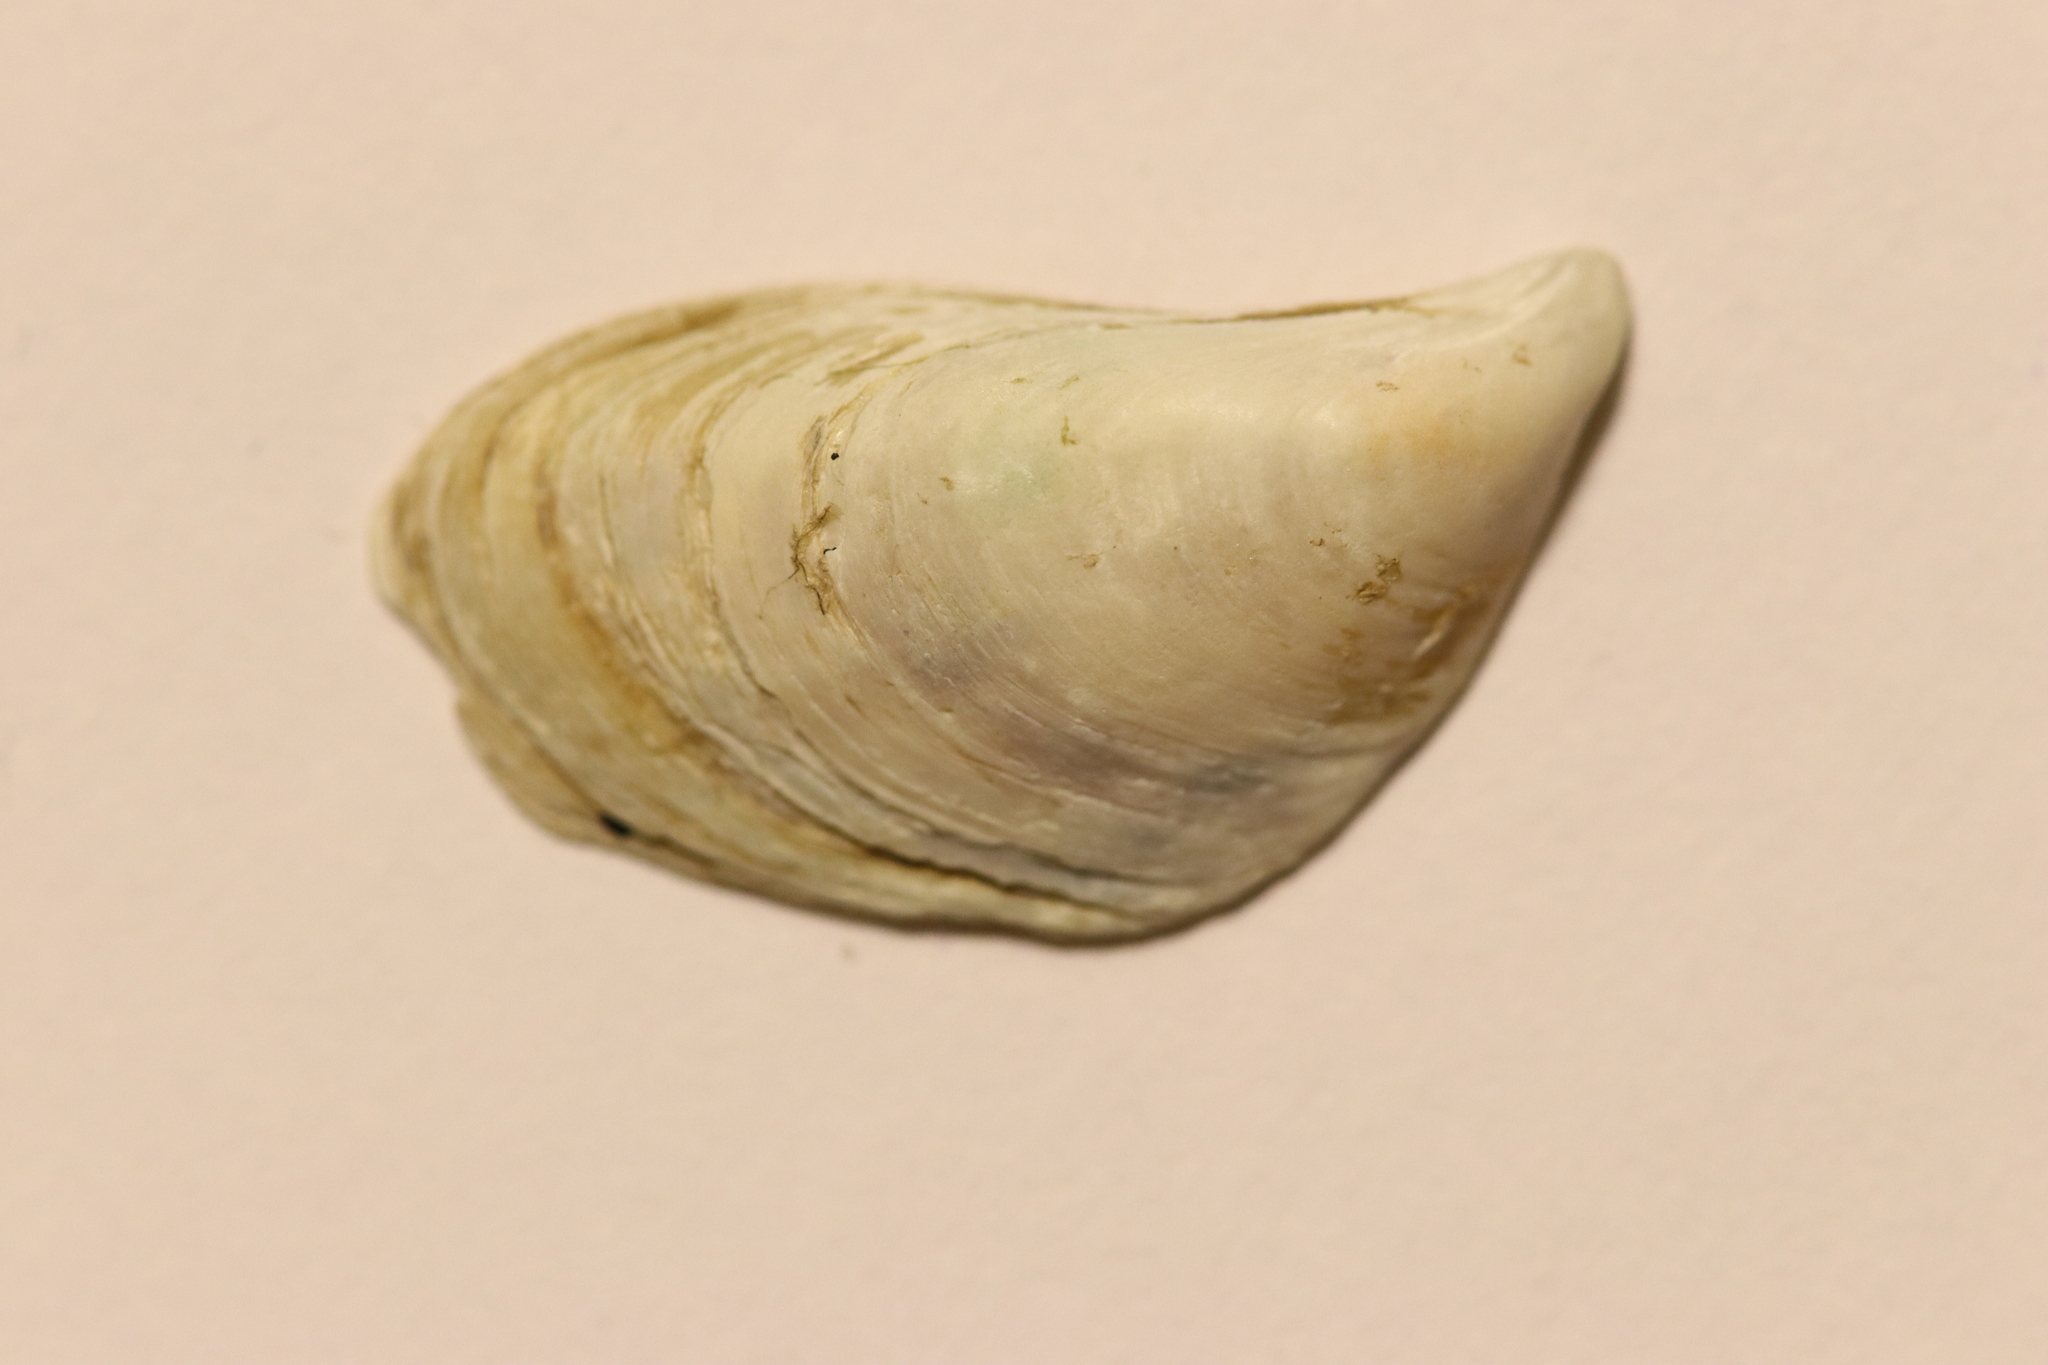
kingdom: Animalia
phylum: Mollusca
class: Bivalvia
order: Myida
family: Dreissenidae
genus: Dreissena
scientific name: Dreissena bugensis
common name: Quagga mussel
